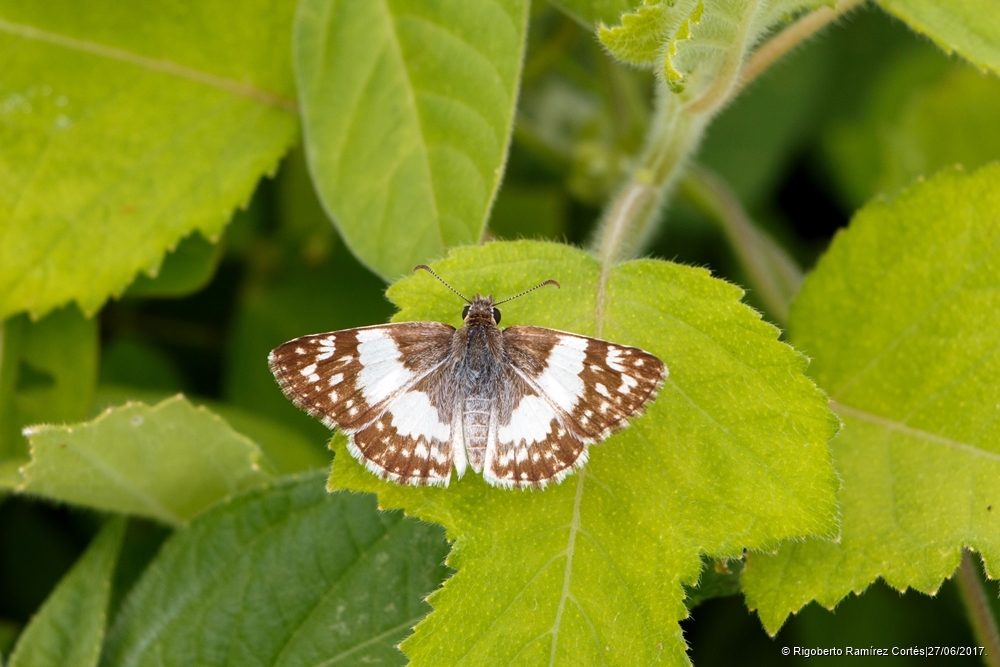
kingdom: Animalia
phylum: Arthropoda
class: Insecta
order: Lepidoptera
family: Hesperiidae
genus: Heliopyrgus
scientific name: Heliopyrgus domicella
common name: Erichson's white skipper
